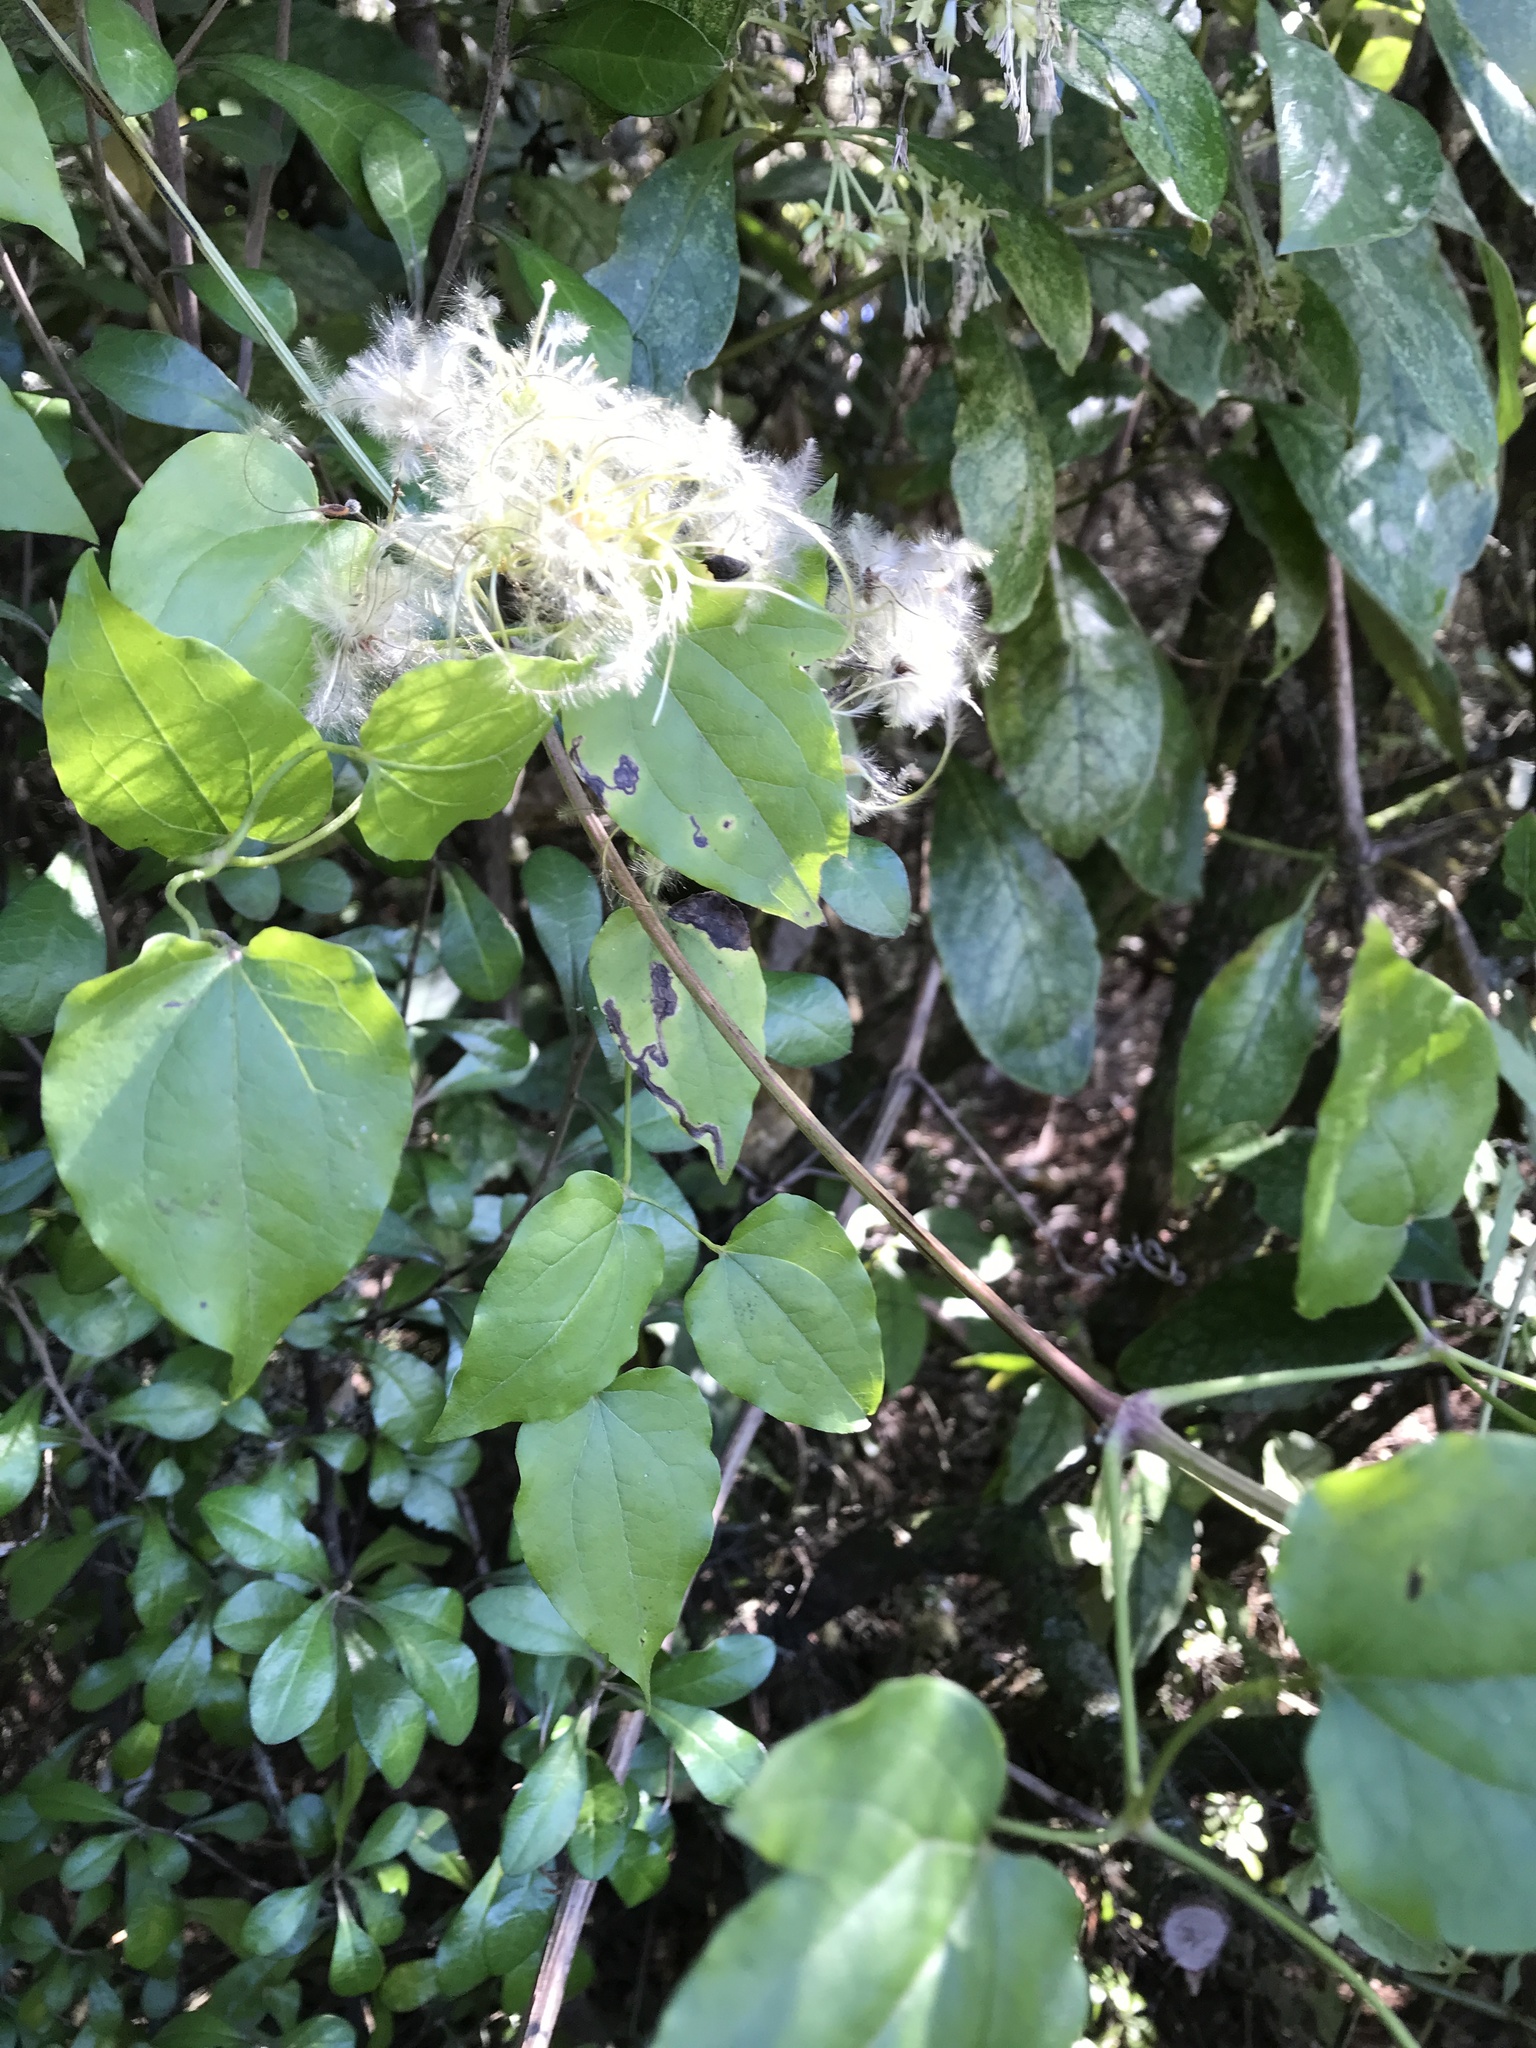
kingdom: Plantae
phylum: Tracheophyta
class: Magnoliopsida
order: Ranunculales
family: Ranunculaceae
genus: Clematis
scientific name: Clematis vitalba
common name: Evergreen clematis
